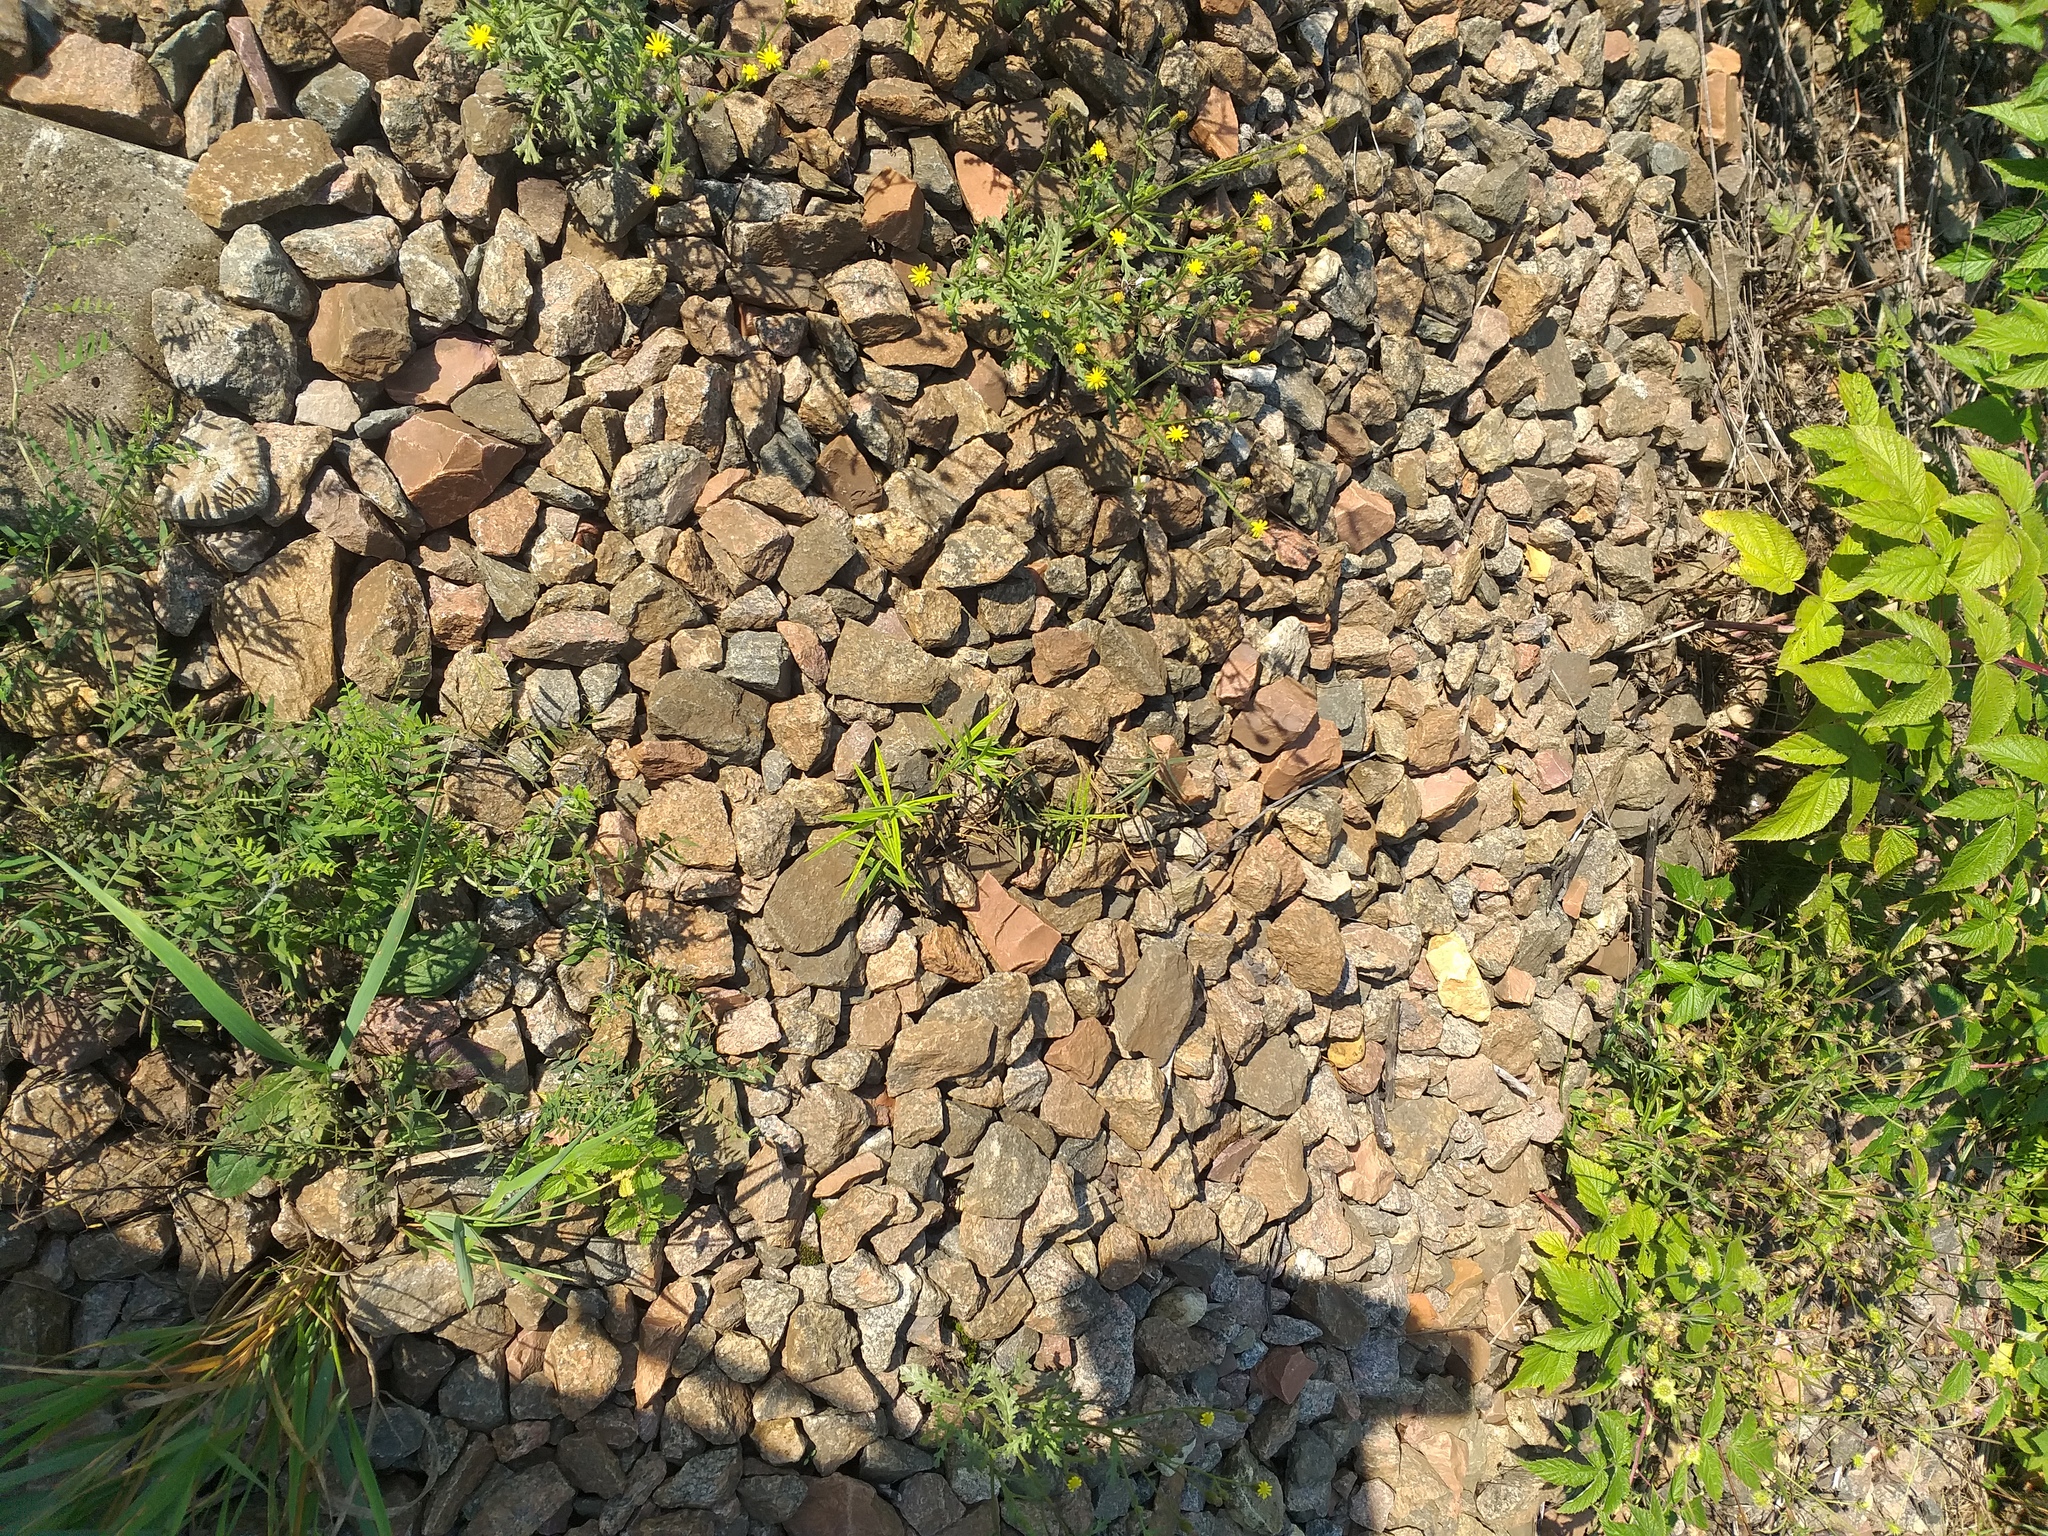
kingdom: Plantae
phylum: Tracheophyta
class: Magnoliopsida
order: Caryophyllales
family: Caryophyllaceae
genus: Rabelera
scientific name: Rabelera holostea
